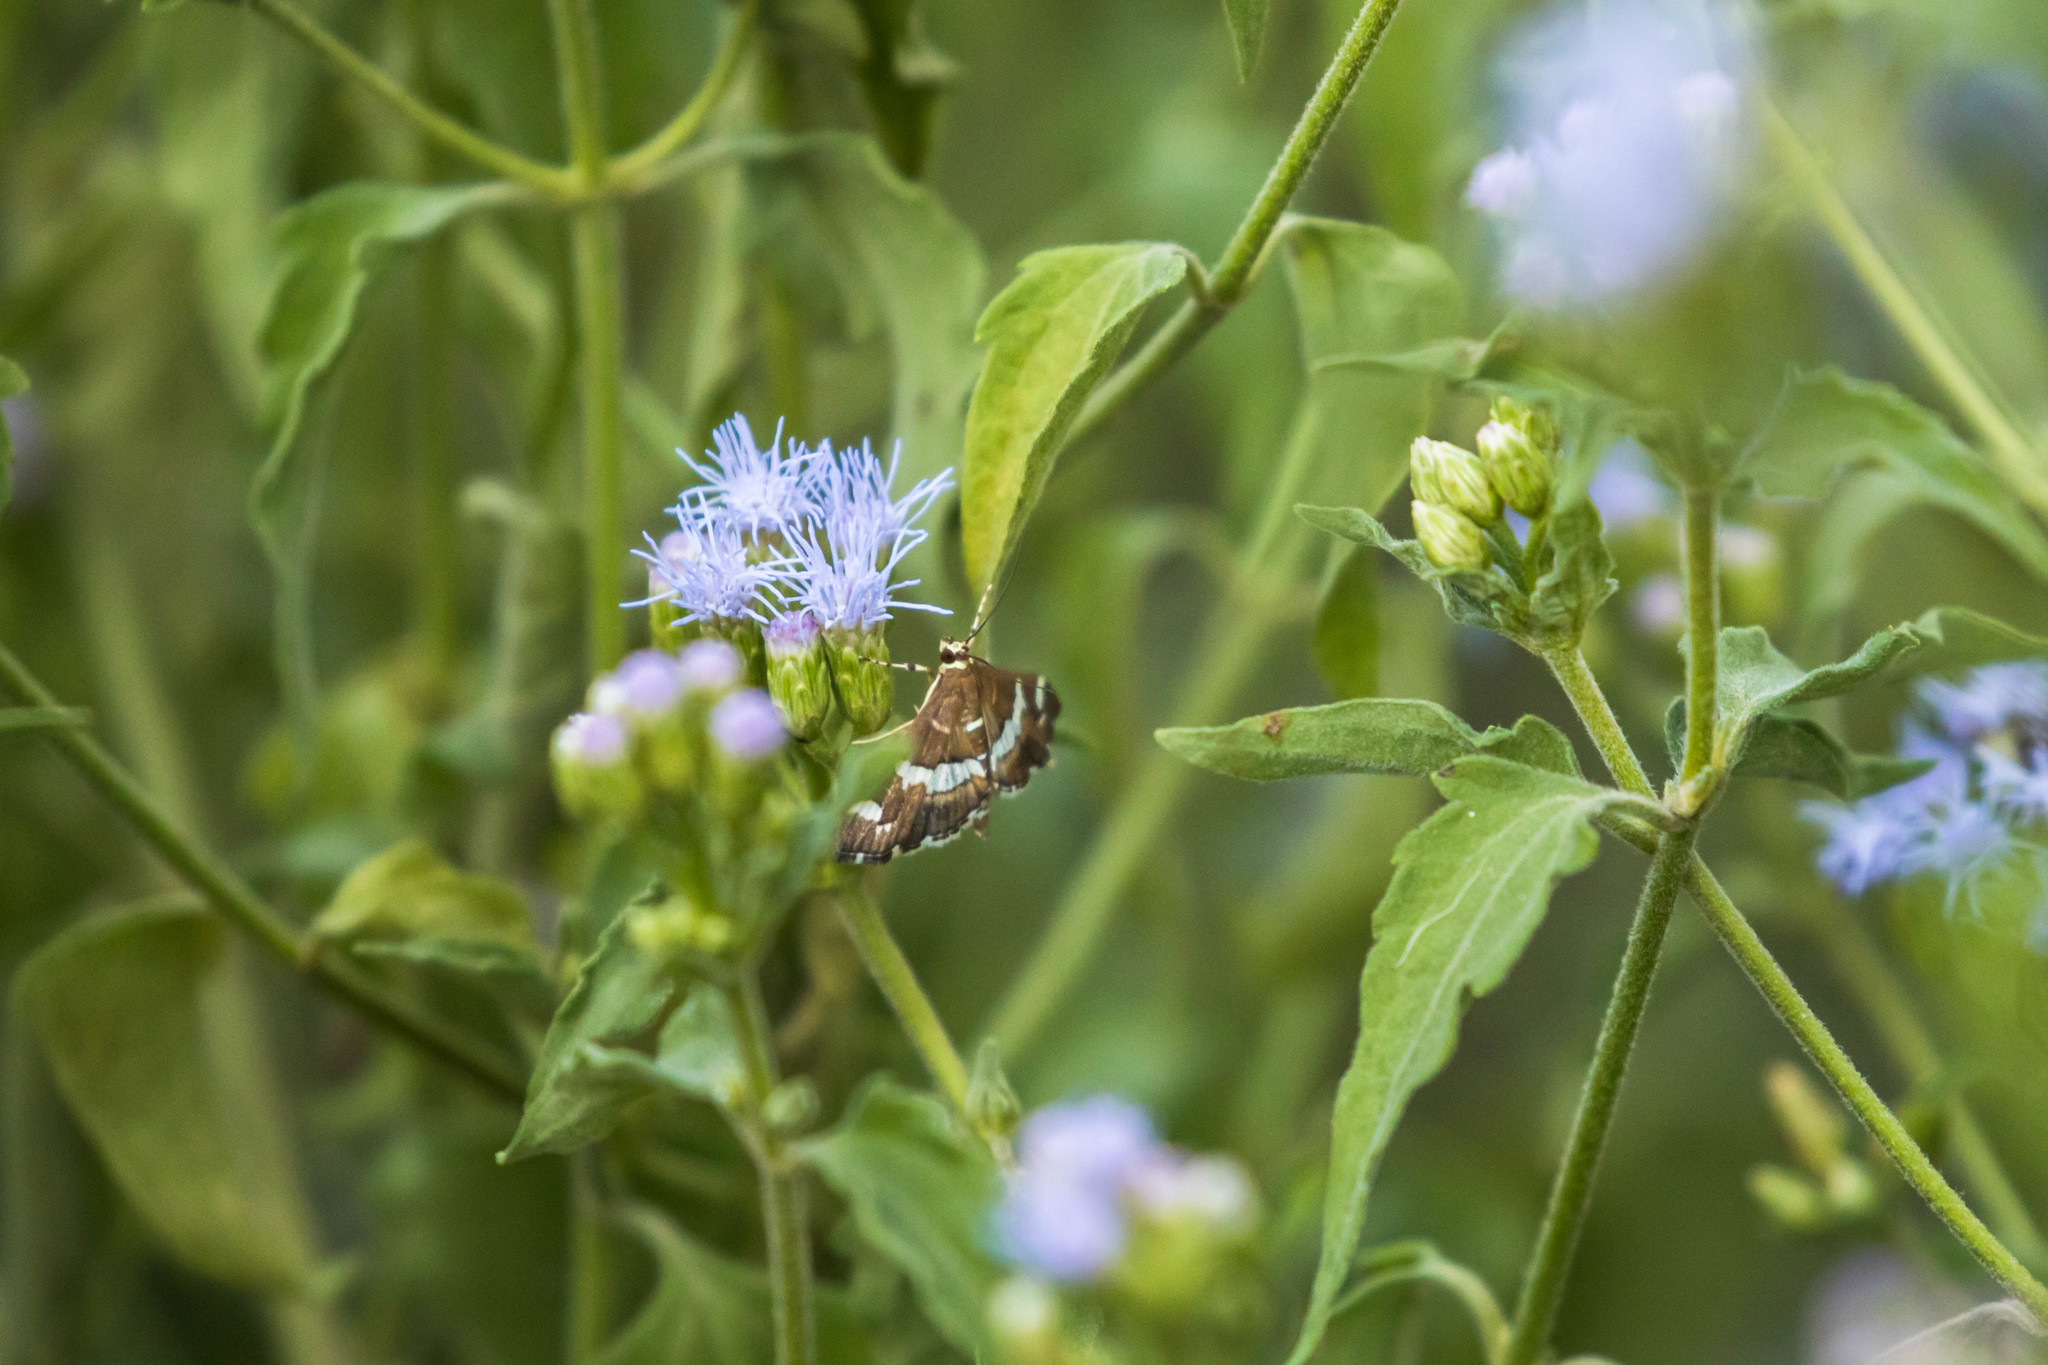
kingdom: Animalia
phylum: Arthropoda
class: Insecta
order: Lepidoptera
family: Crambidae
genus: Spoladea
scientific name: Spoladea recurvalis
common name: Beet webworm moth
